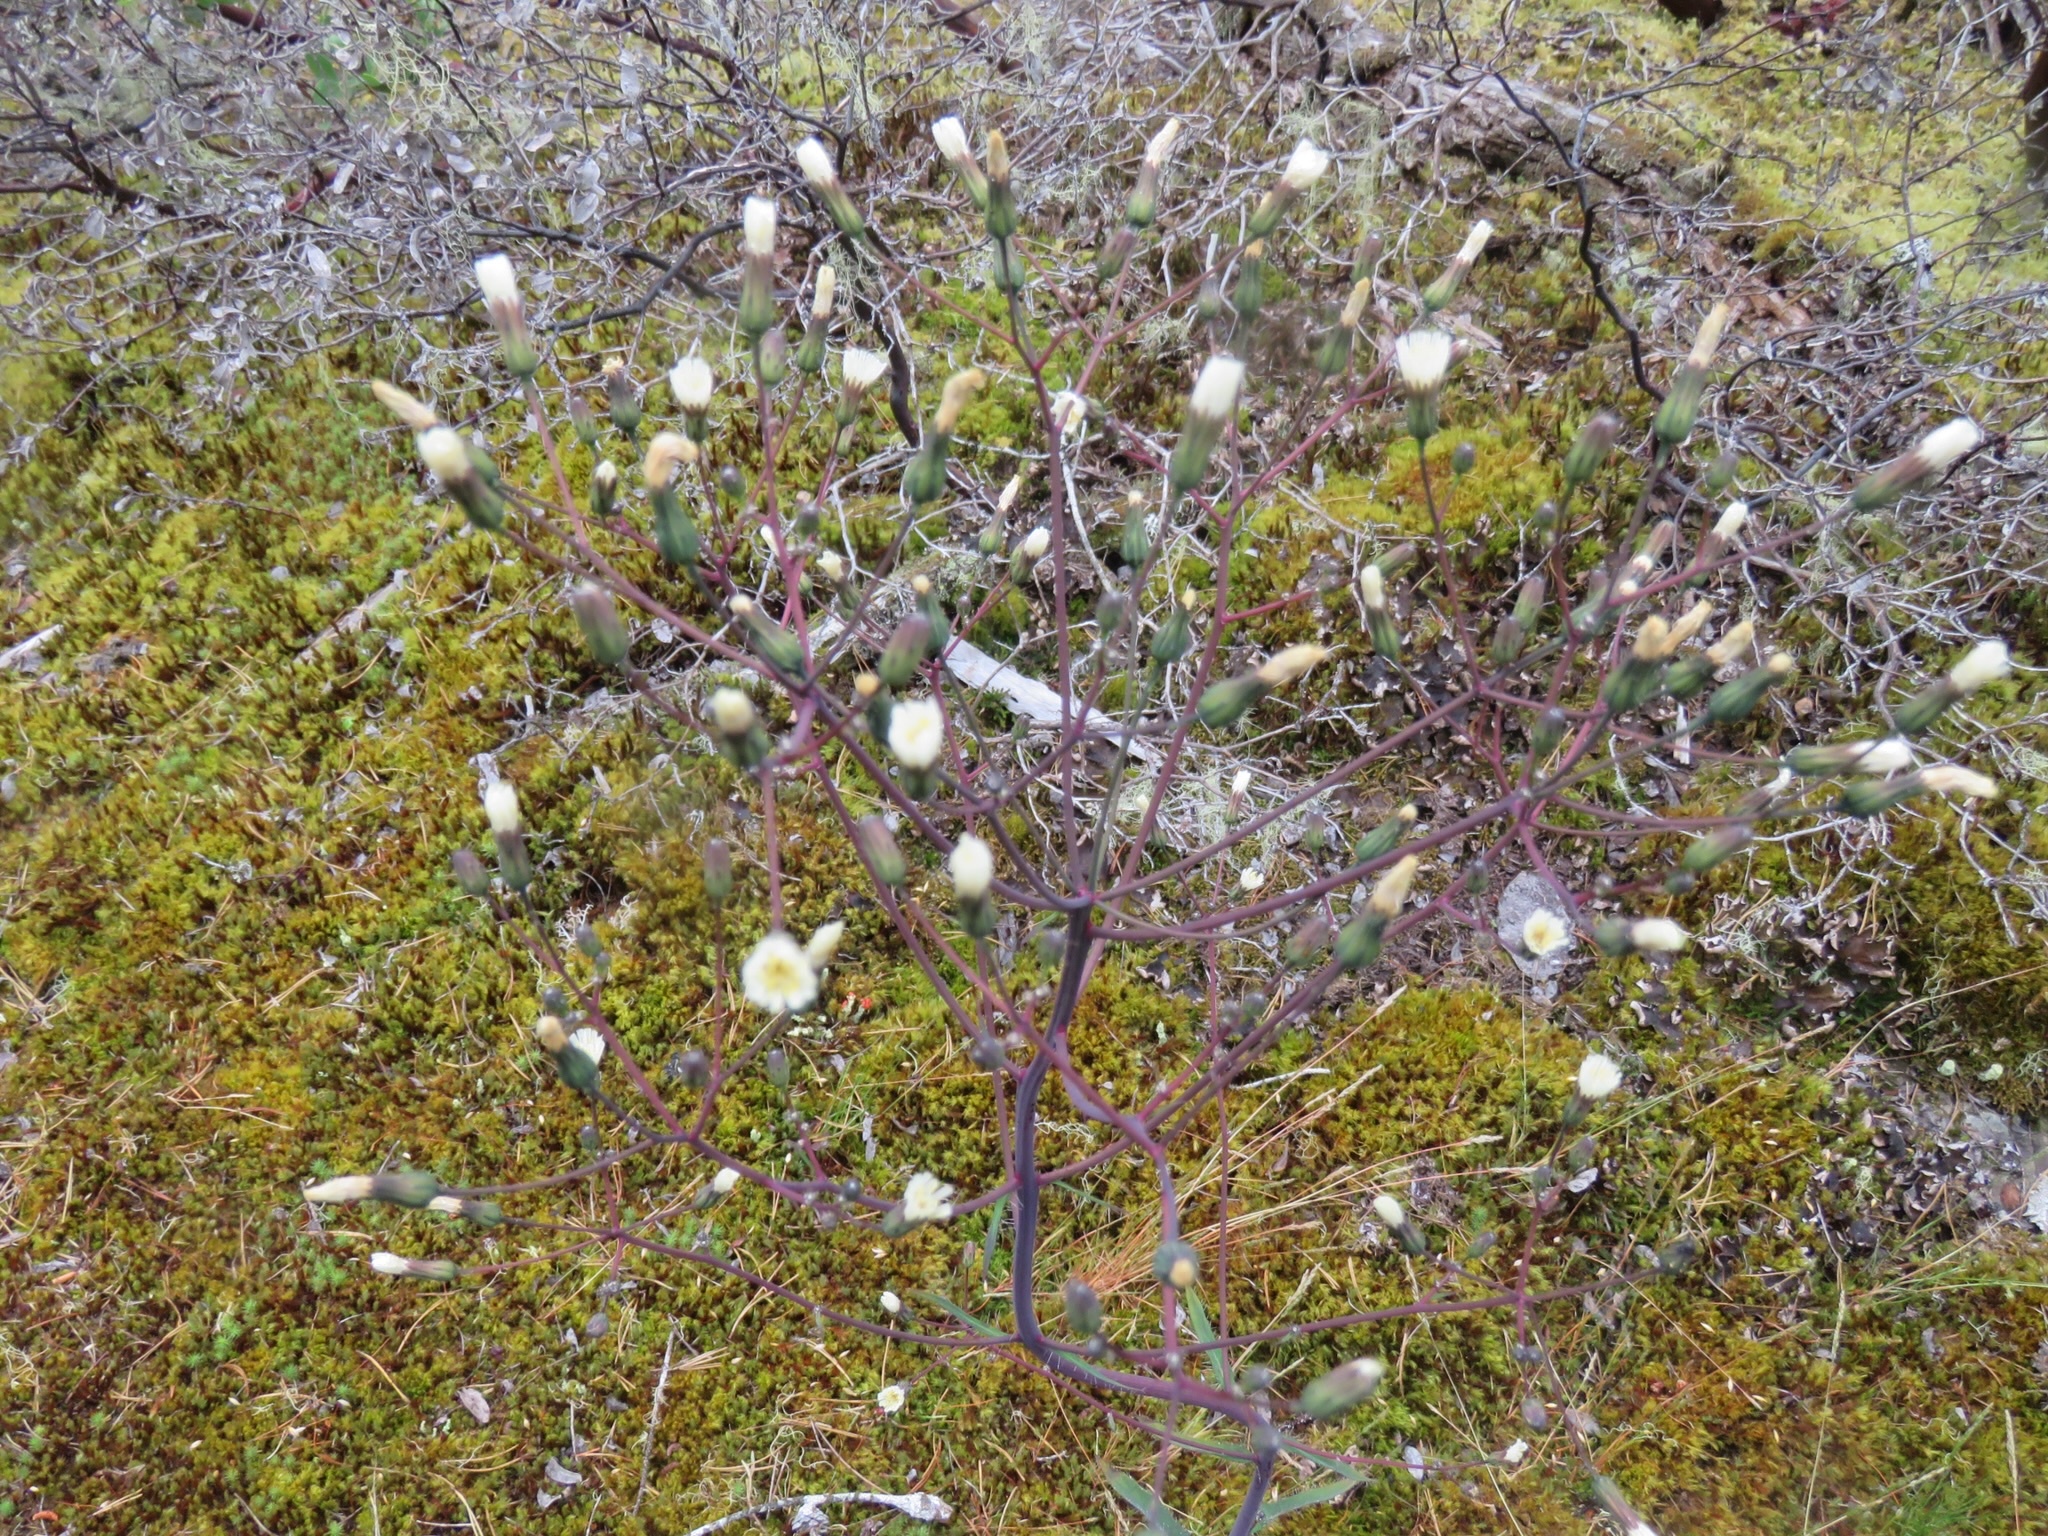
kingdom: Plantae
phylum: Tracheophyta
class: Magnoliopsida
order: Asterales
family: Asteraceae
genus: Hieracium
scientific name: Hieracium albiflorum
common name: White hawkweed
